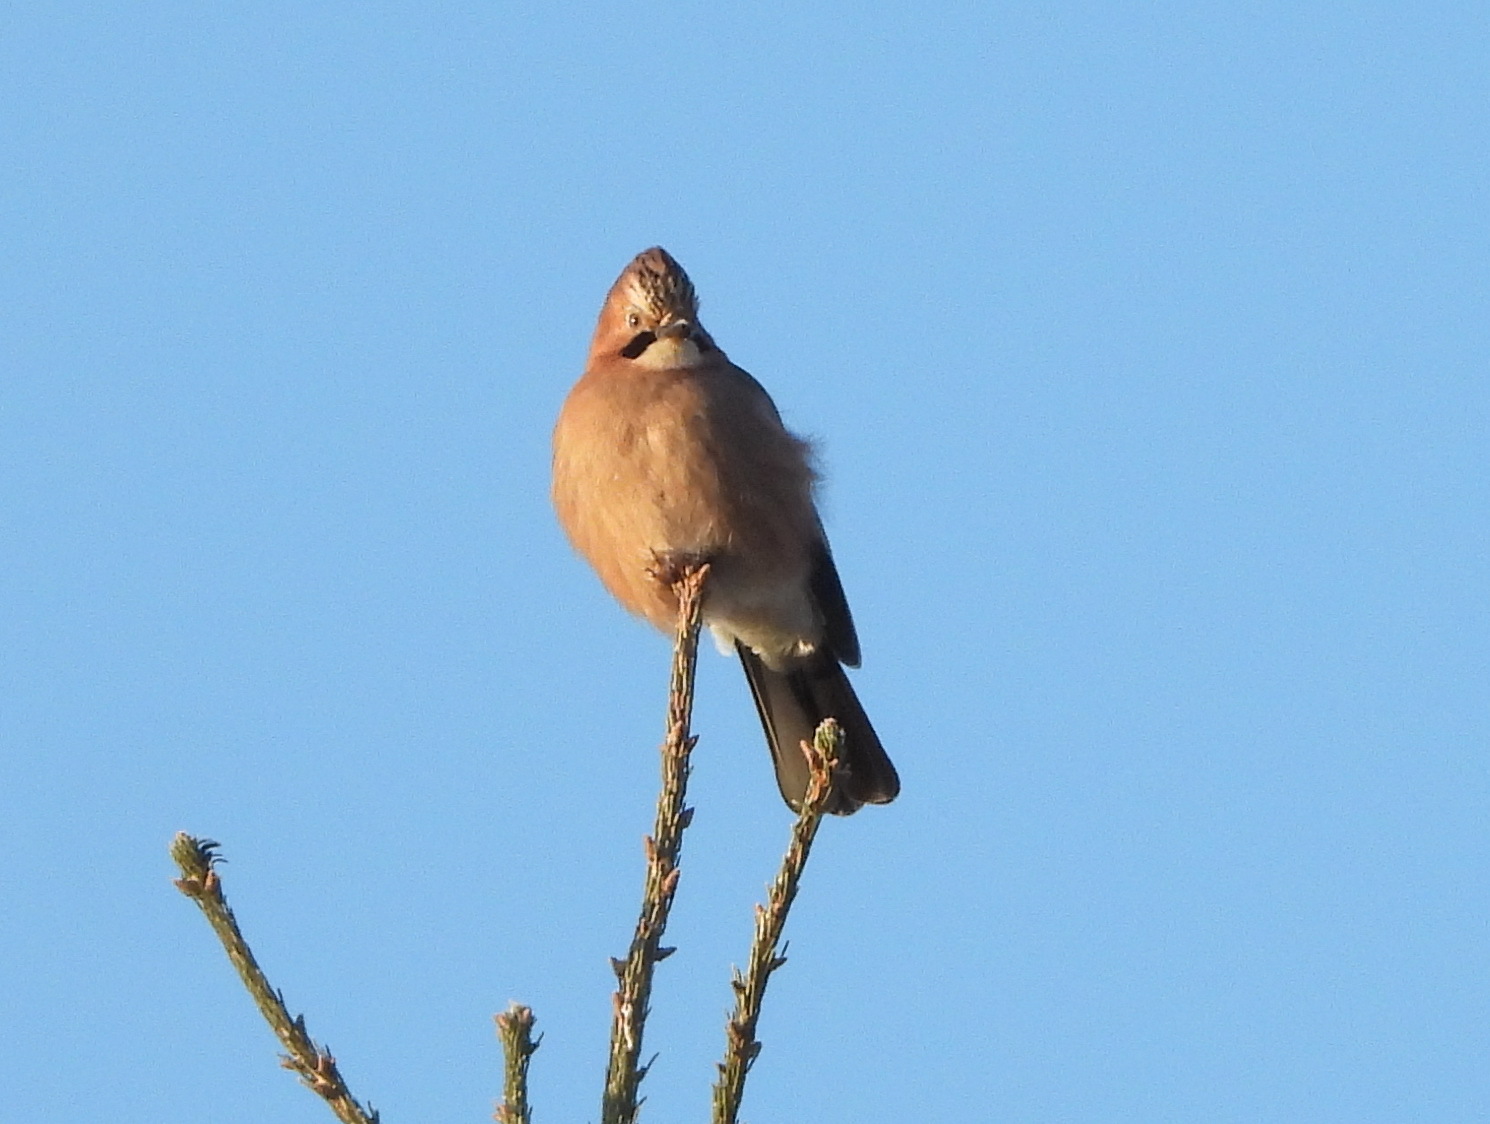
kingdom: Animalia
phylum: Chordata
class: Aves
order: Passeriformes
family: Corvidae
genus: Garrulus
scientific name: Garrulus glandarius
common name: Eurasian jay
